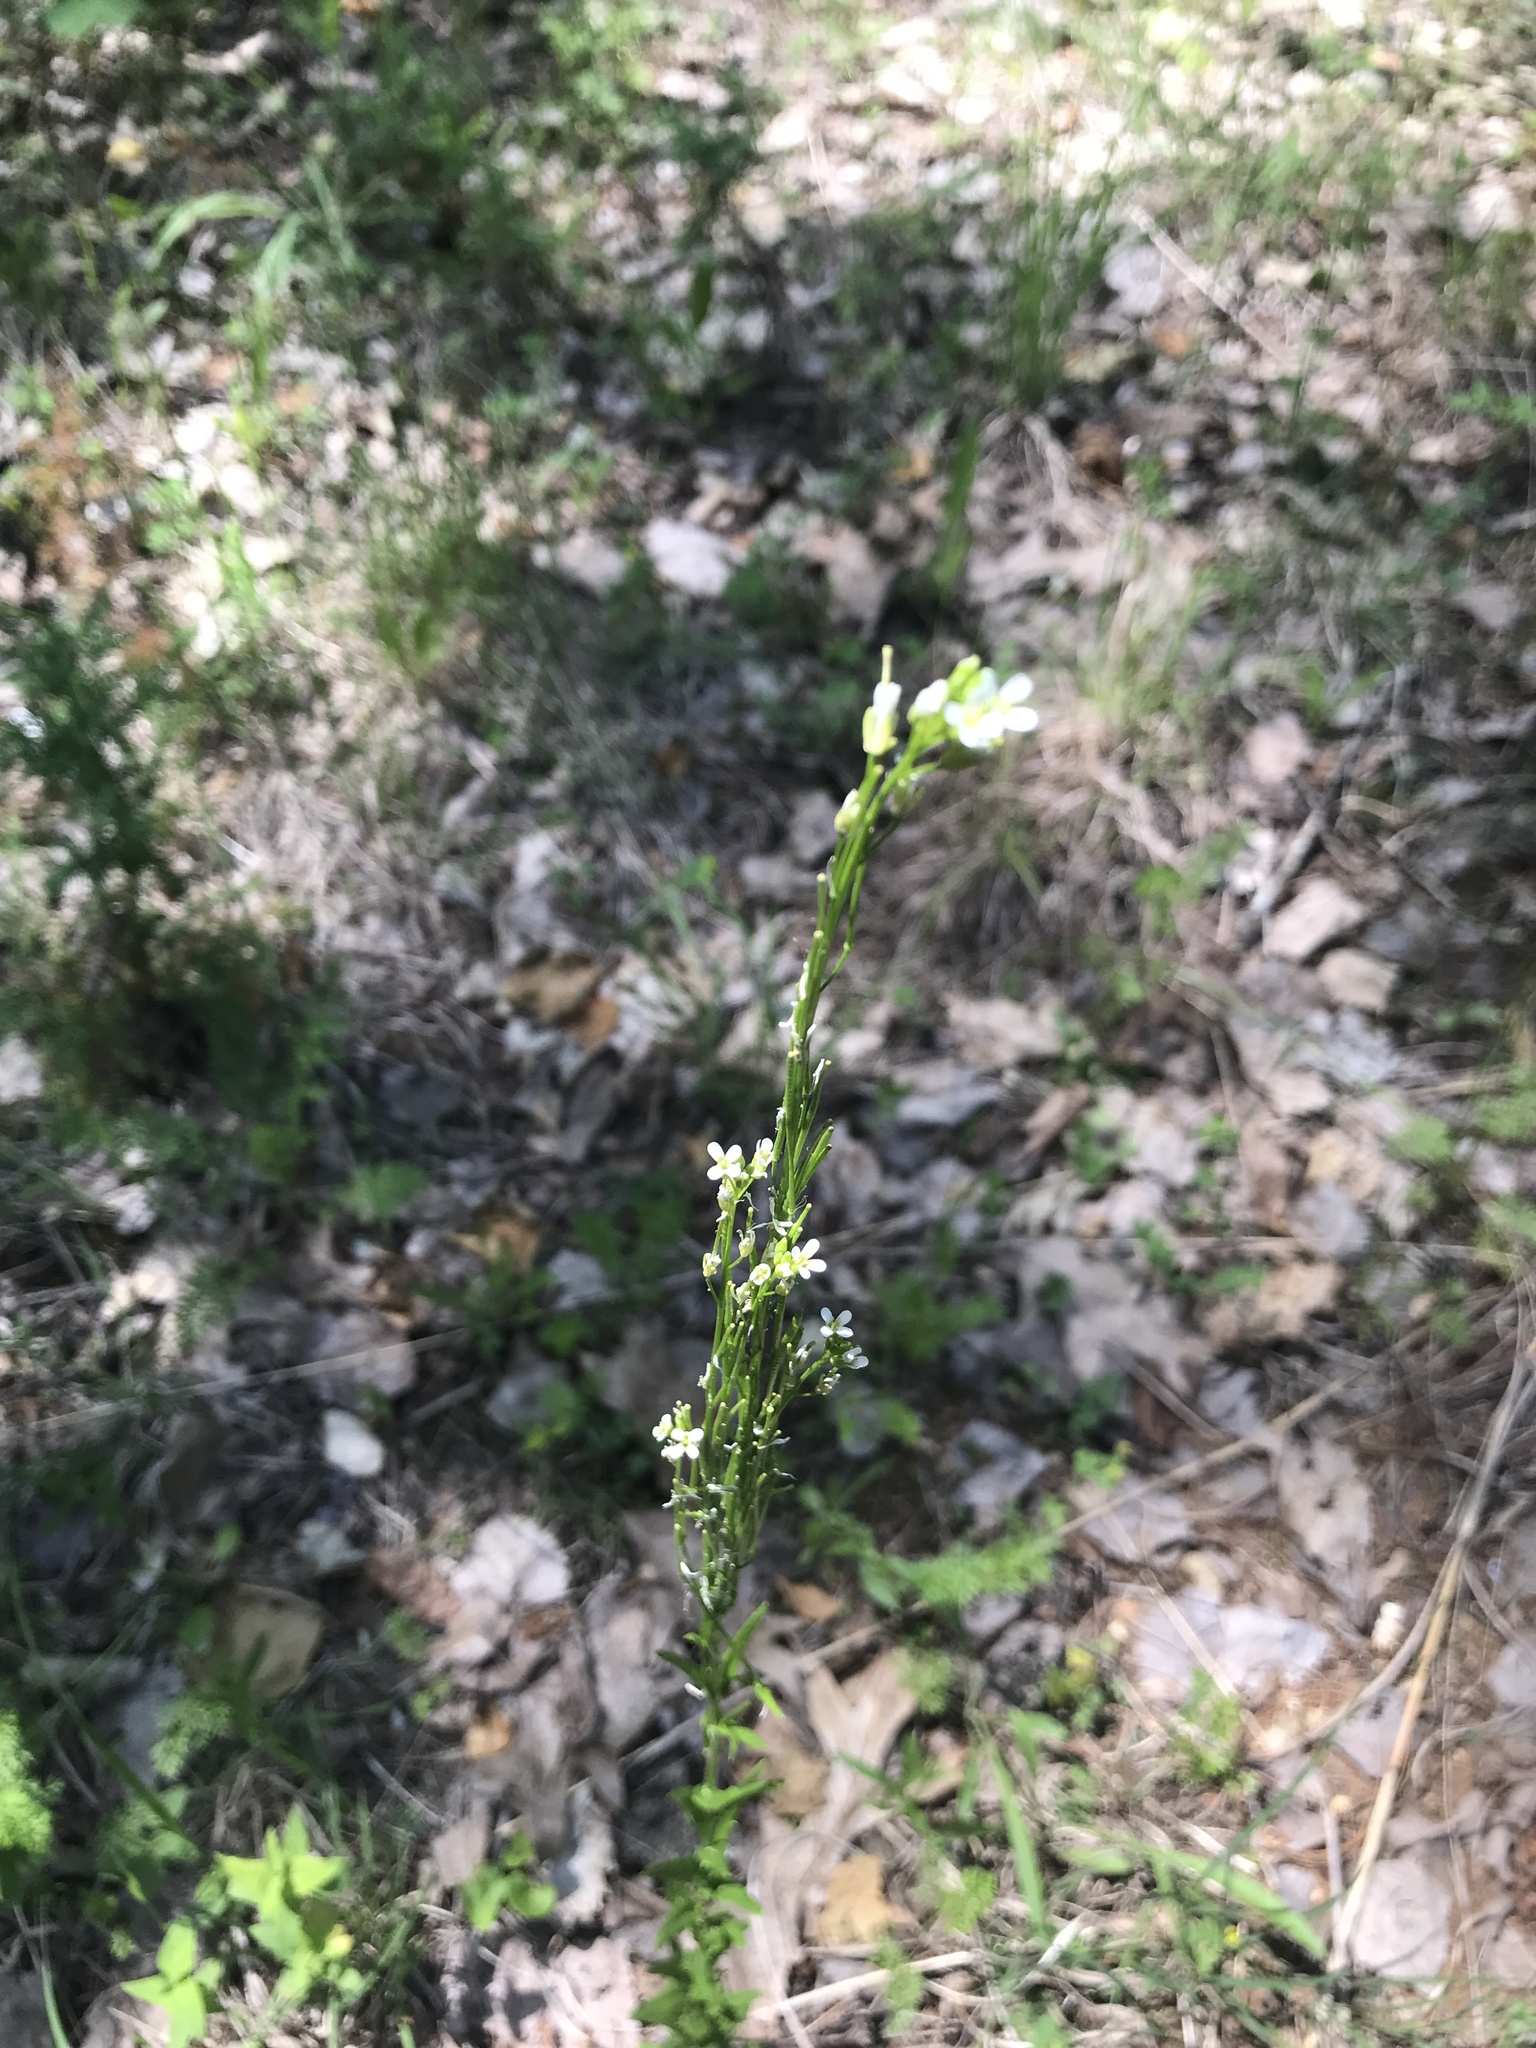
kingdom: Plantae
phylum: Tracheophyta
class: Magnoliopsida
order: Brassicales
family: Brassicaceae
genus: Turritis
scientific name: Turritis glabra
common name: Tower rockcress
